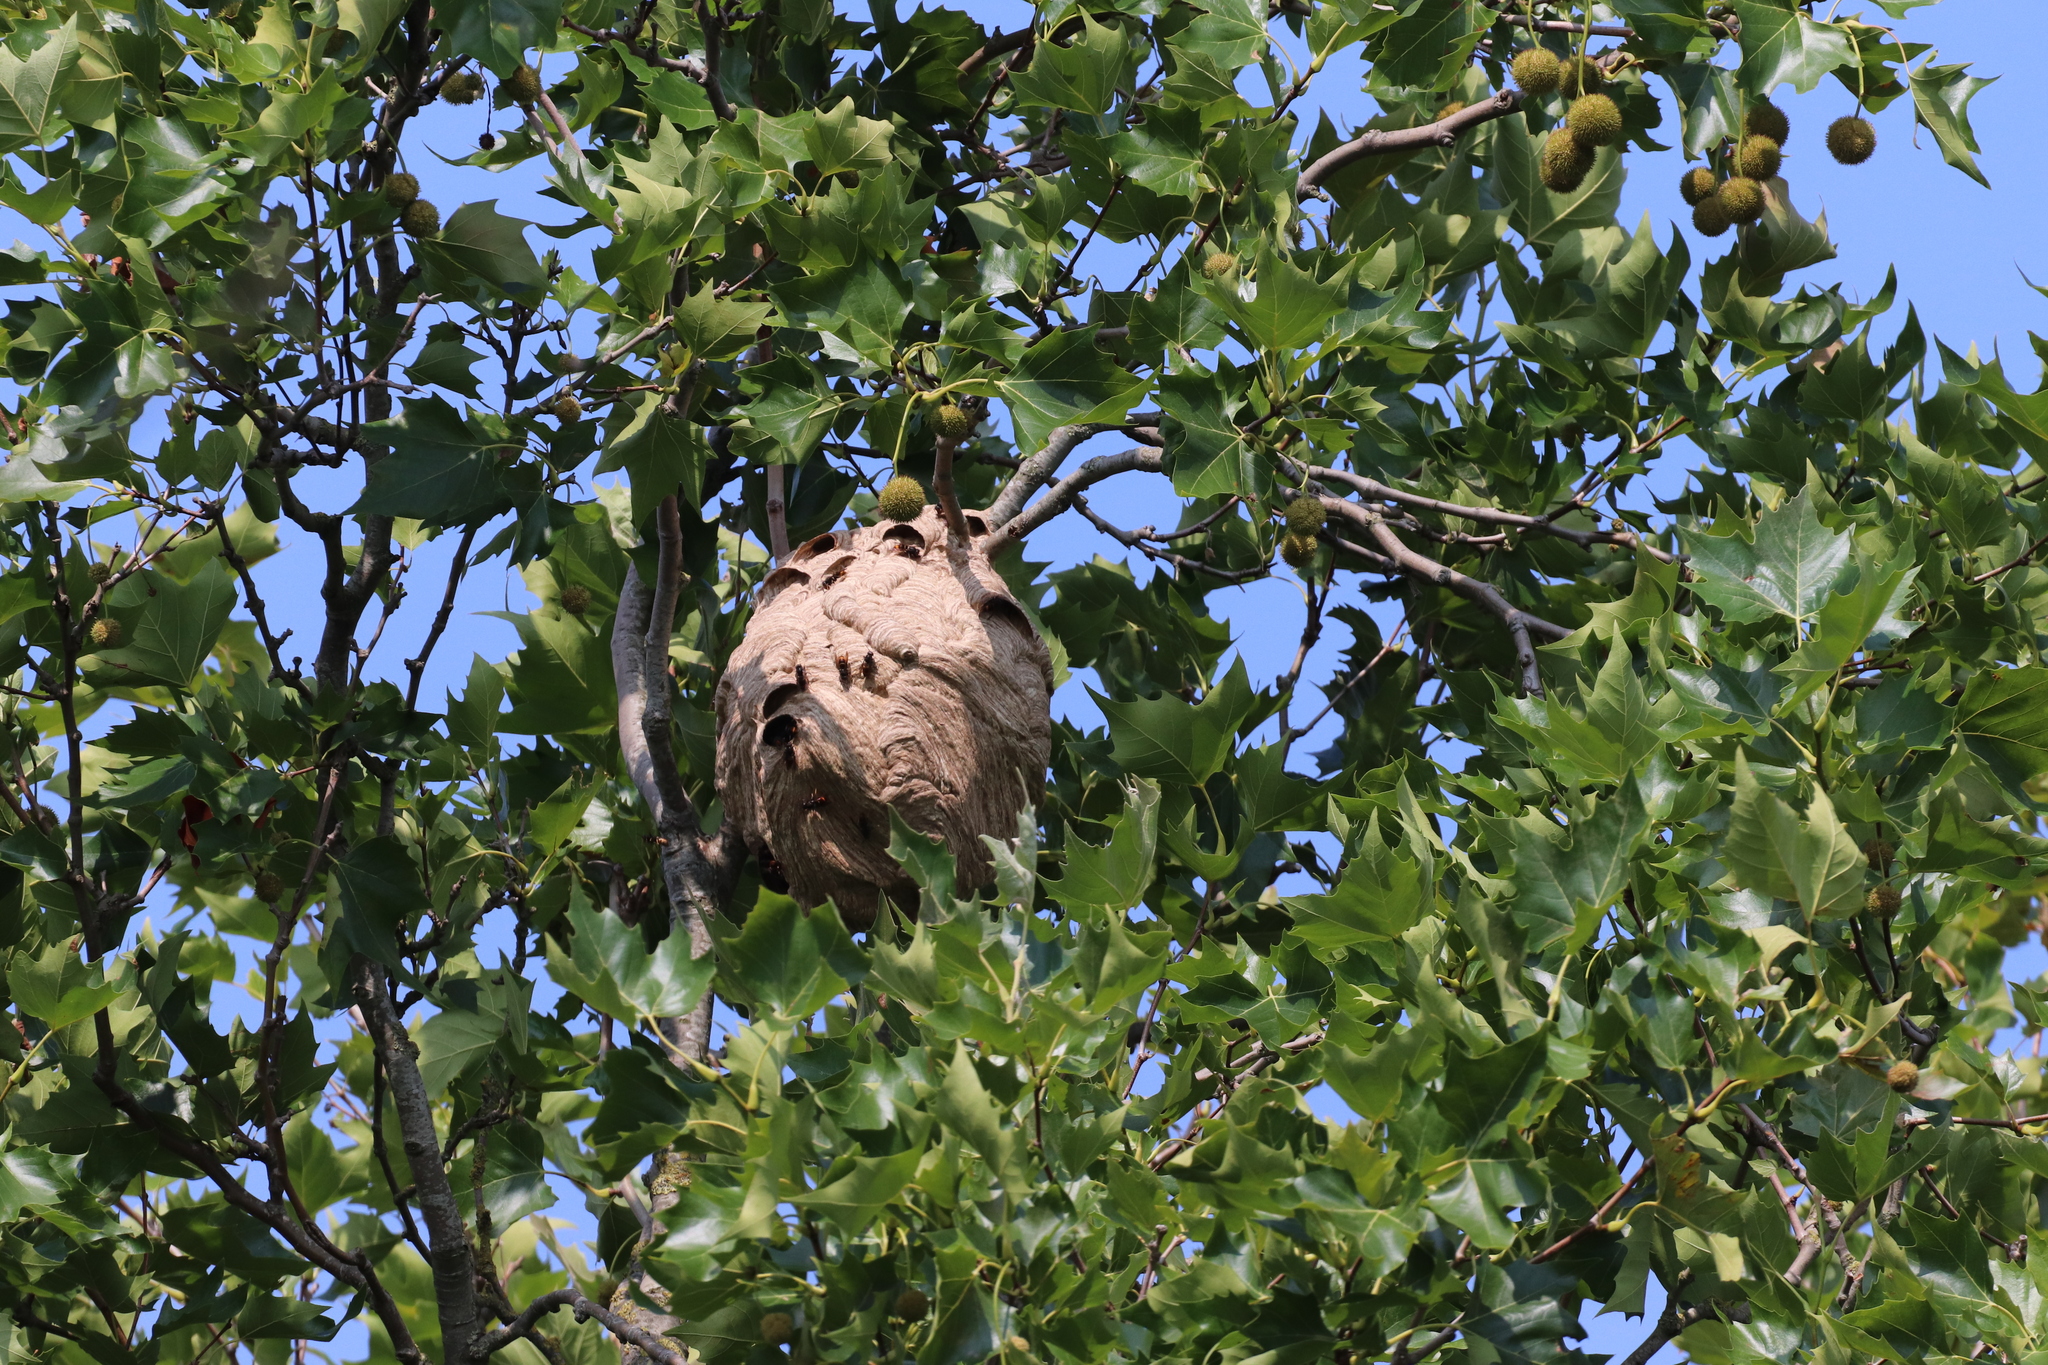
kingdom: Animalia
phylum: Arthropoda
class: Insecta
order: Hymenoptera
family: Vespidae
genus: Vespa
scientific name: Vespa velutina
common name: Asian hornet
